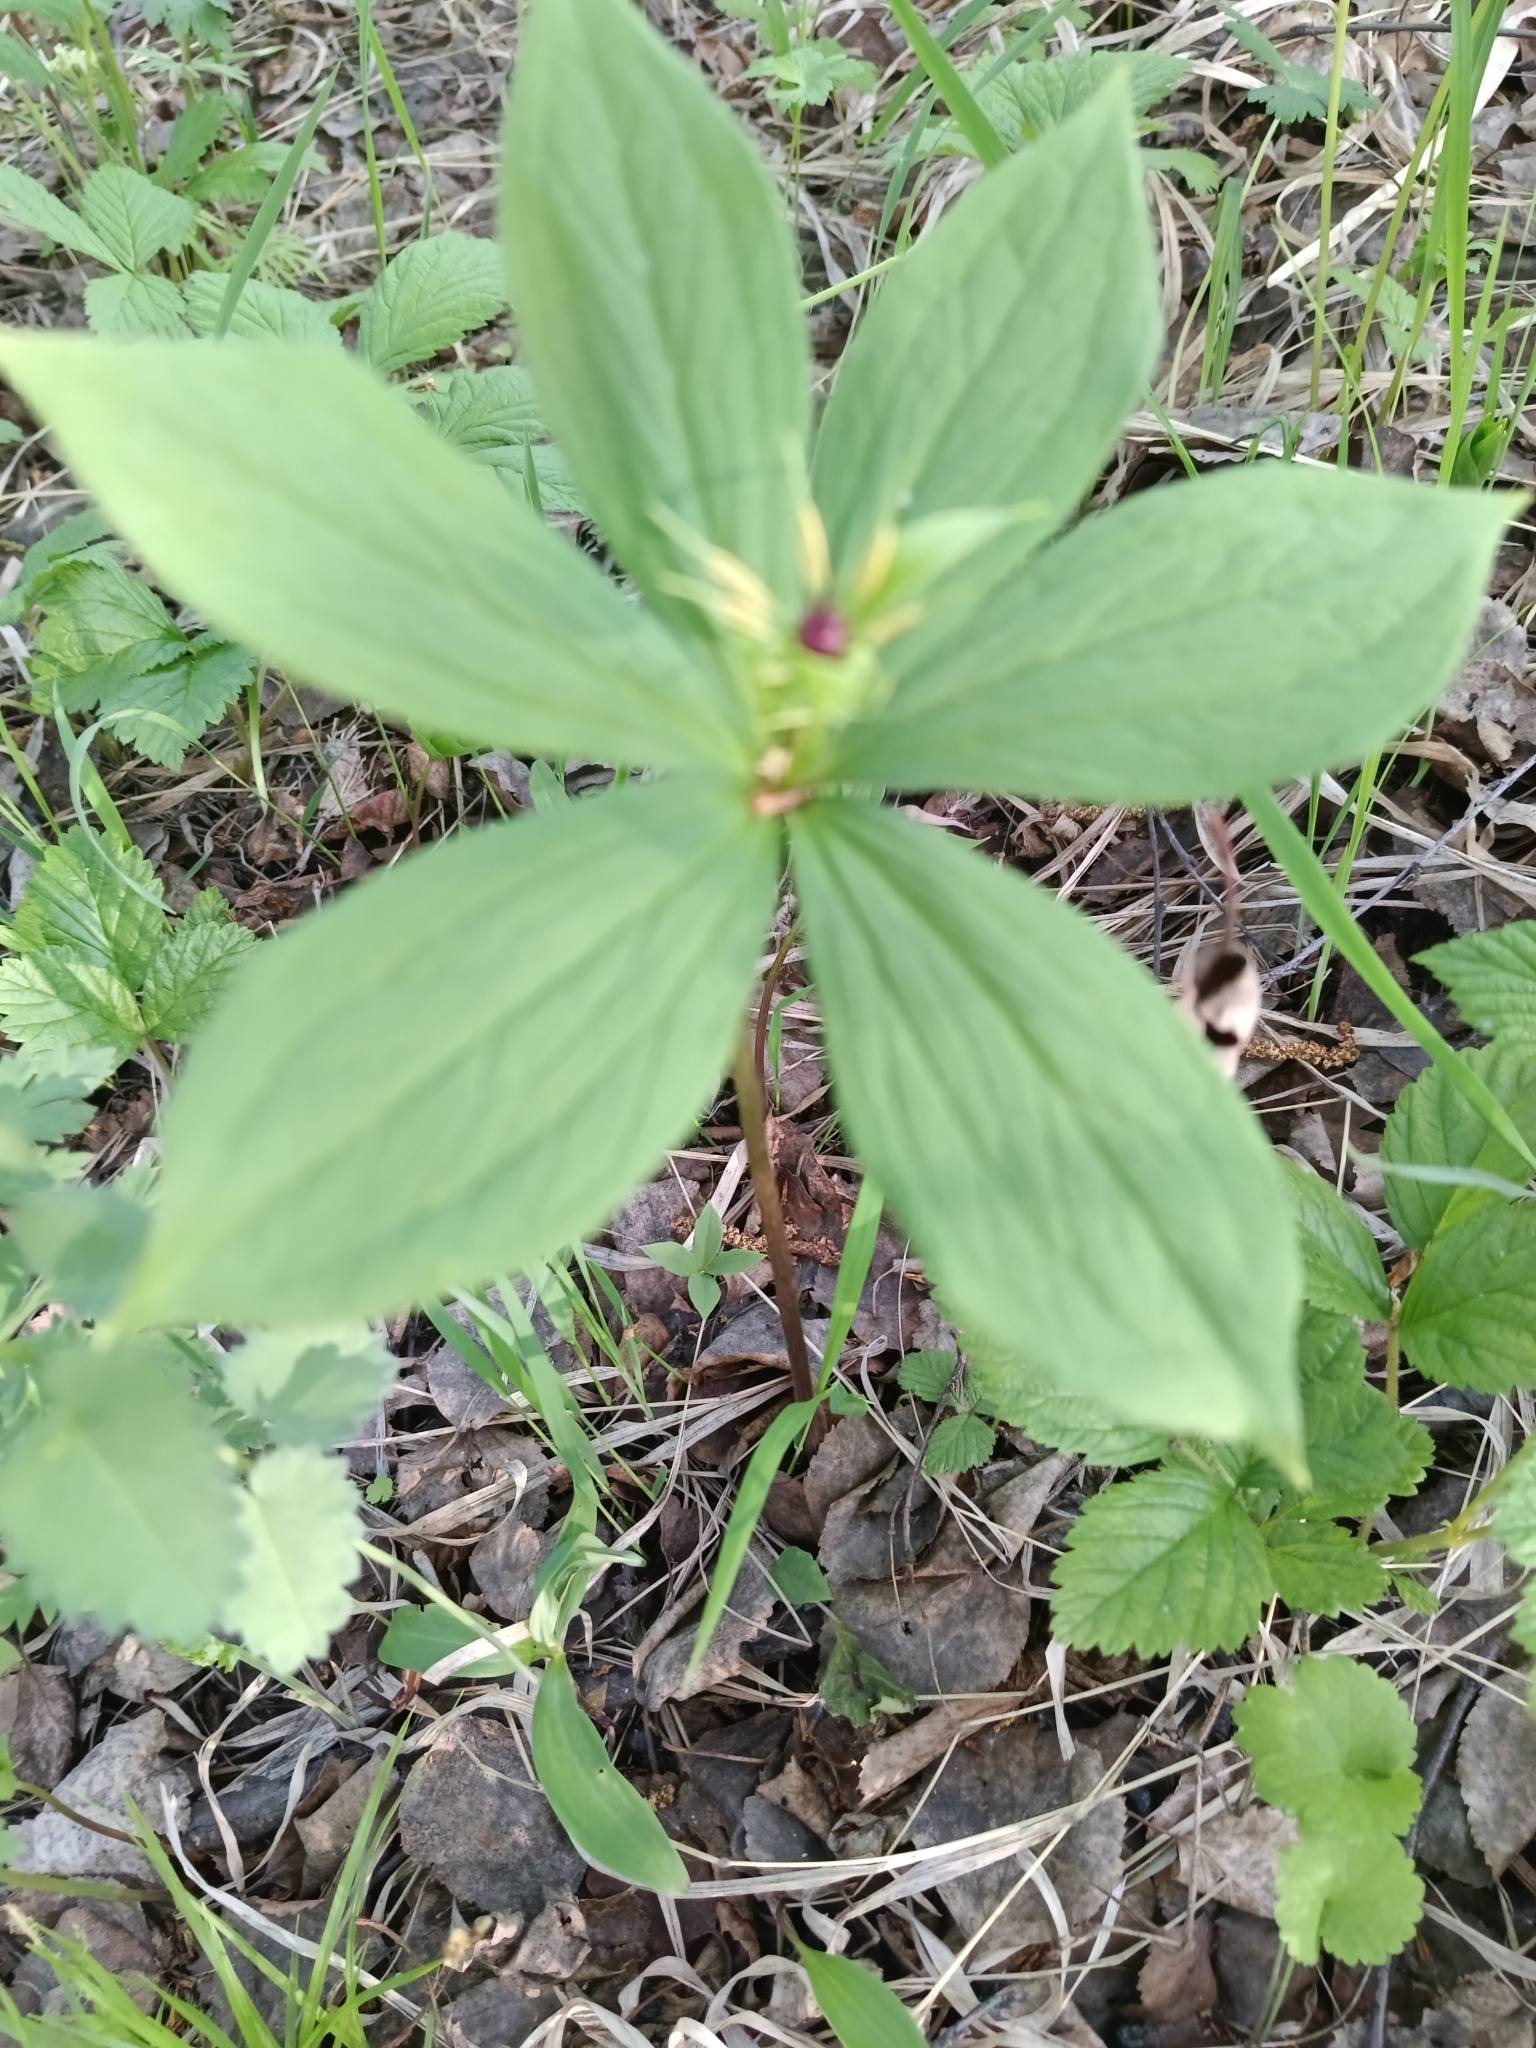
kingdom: Plantae
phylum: Tracheophyta
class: Liliopsida
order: Liliales
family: Melanthiaceae
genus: Paris
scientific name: Paris quadrifolia
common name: Herb-paris
